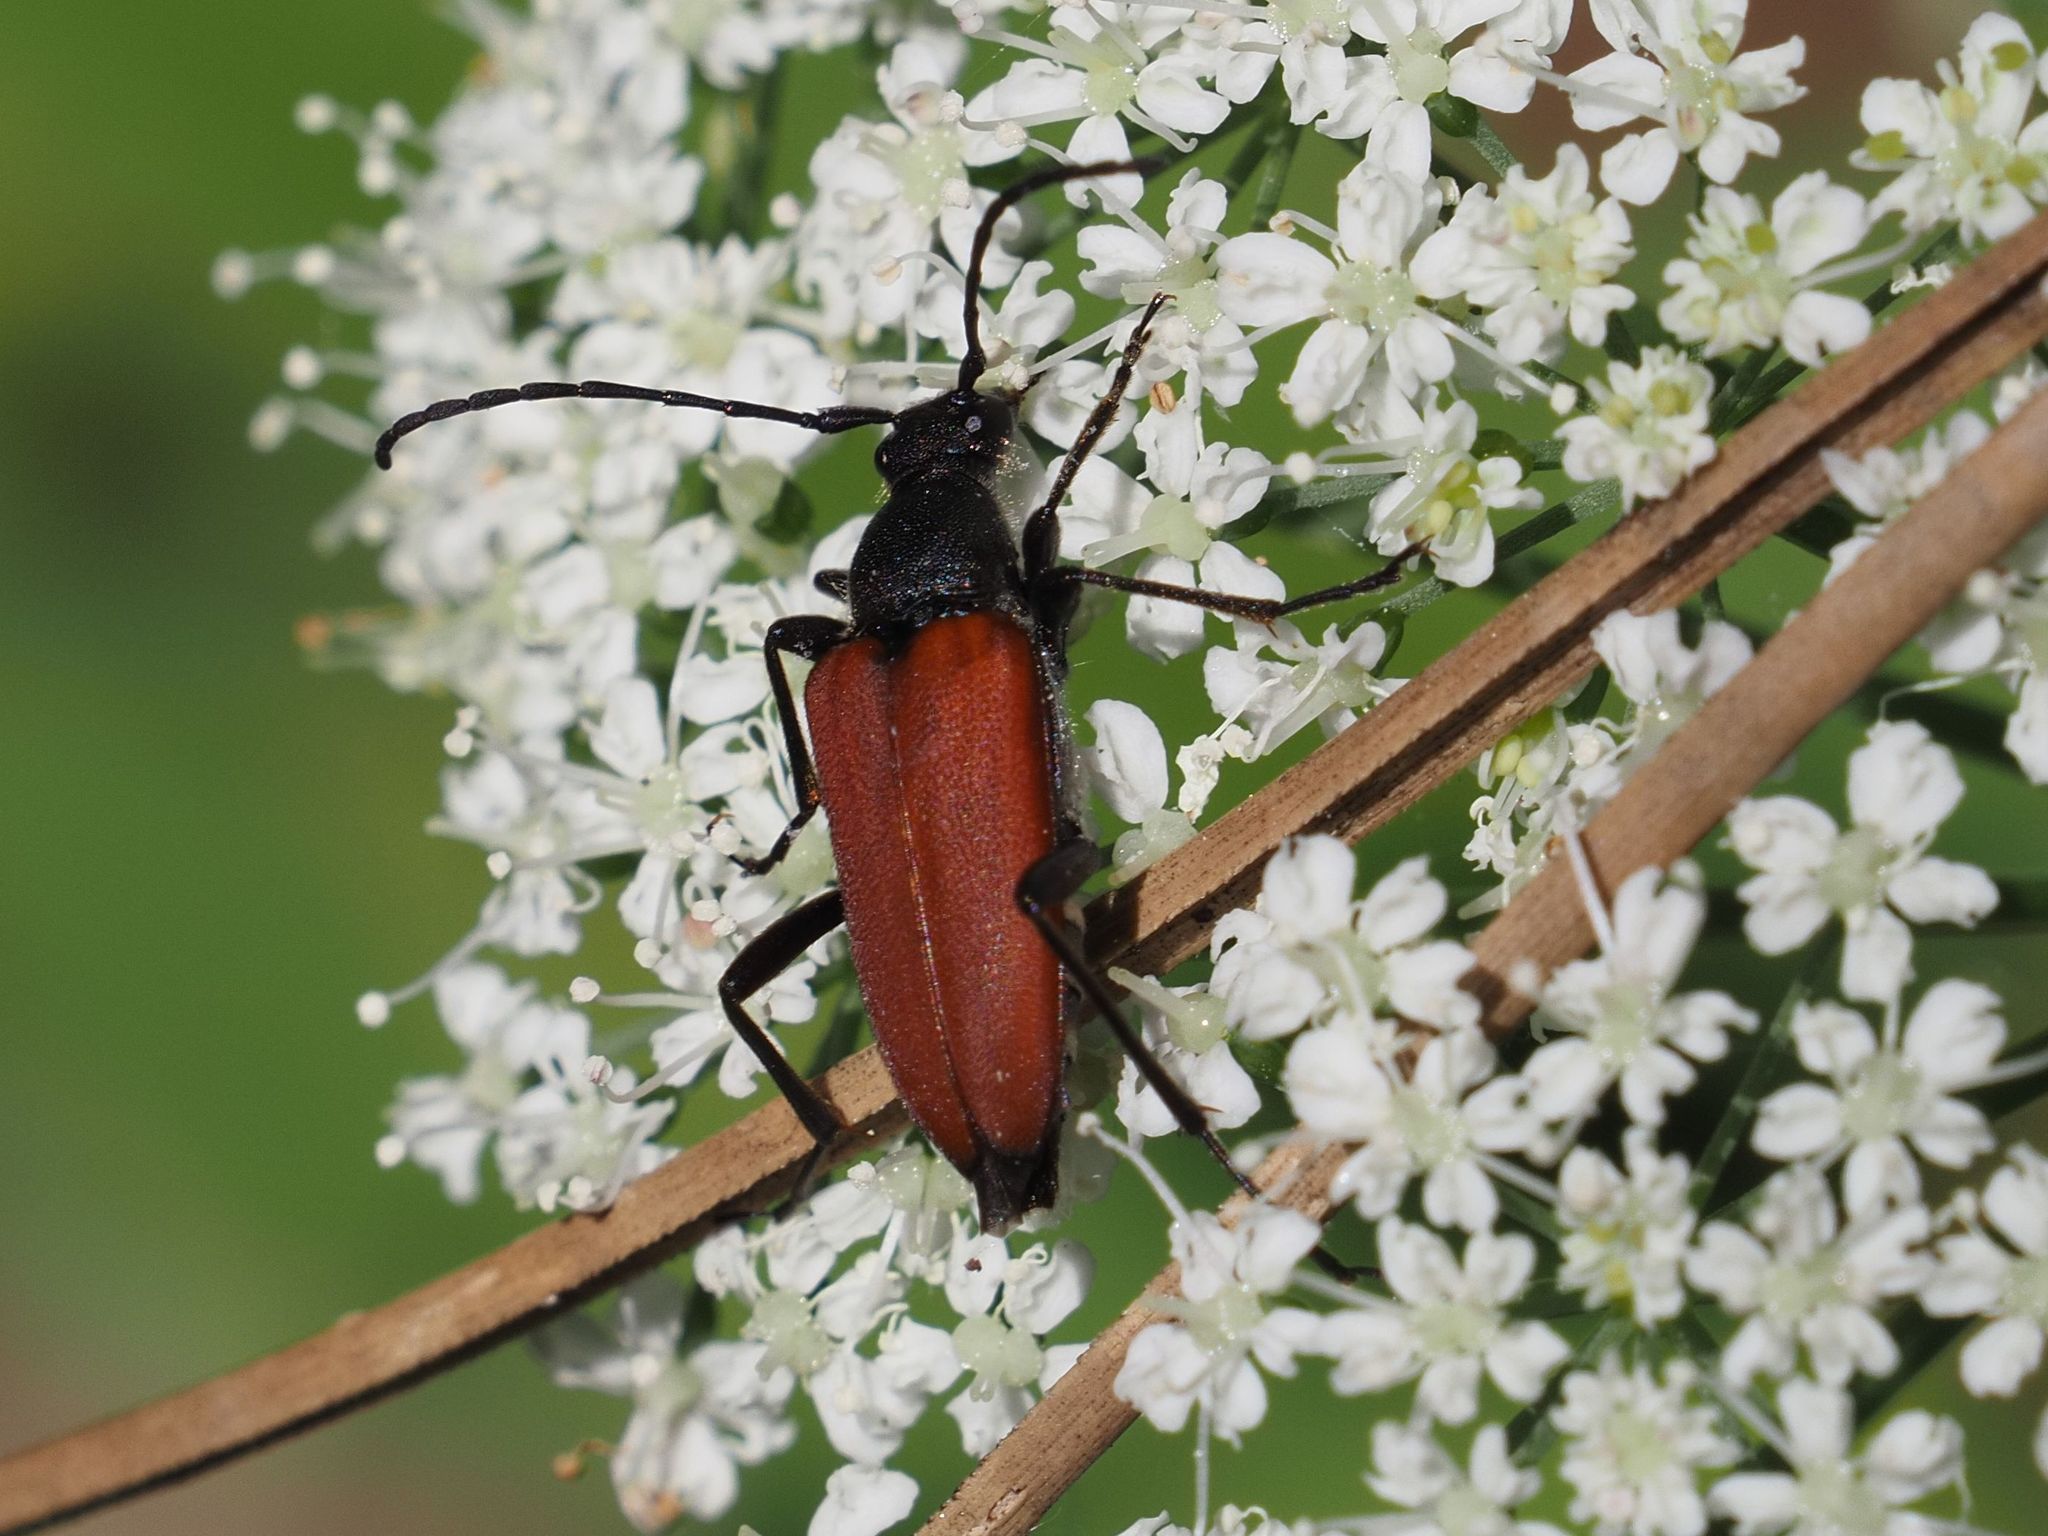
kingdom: Animalia
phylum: Arthropoda
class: Insecta
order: Coleoptera
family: Cerambycidae
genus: Anastrangalia
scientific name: Anastrangalia sanguinolenta
